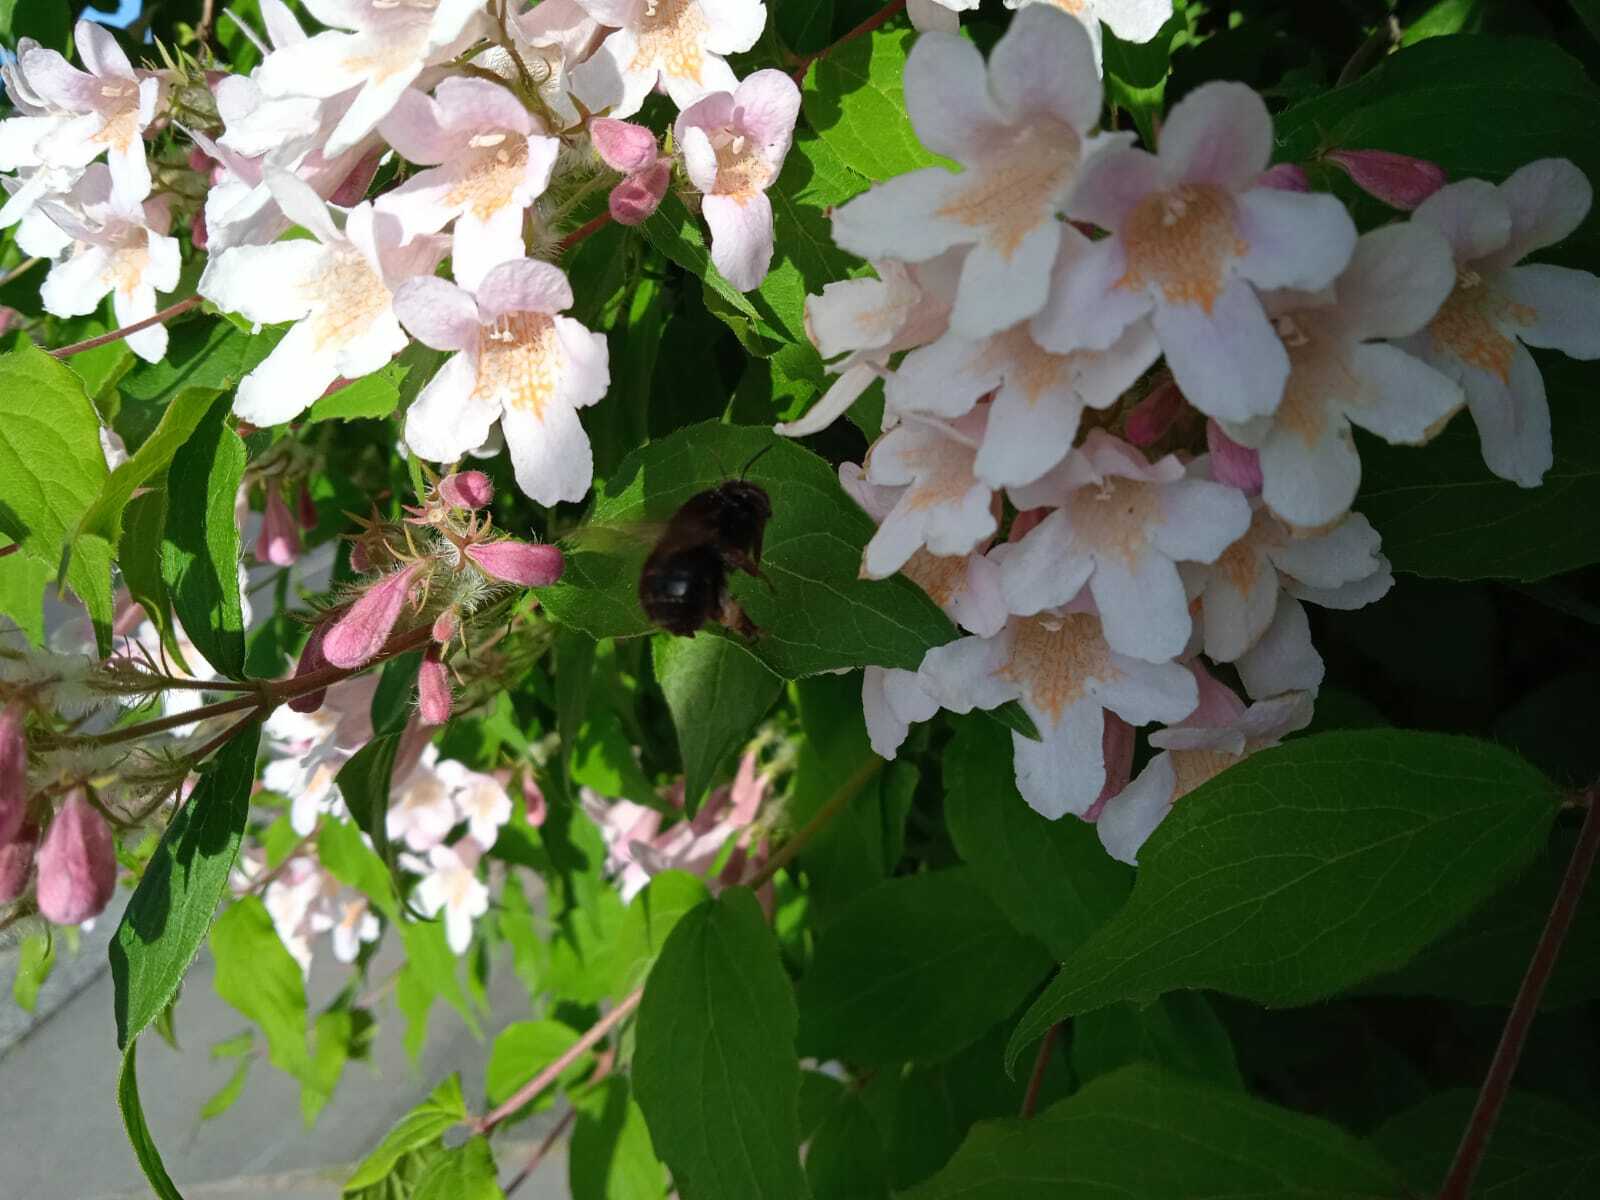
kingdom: Animalia
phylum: Arthropoda
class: Insecta
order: Hymenoptera
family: Apidae
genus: Anthophora
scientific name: Anthophora plumipes
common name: Hairy-footed flower bee
